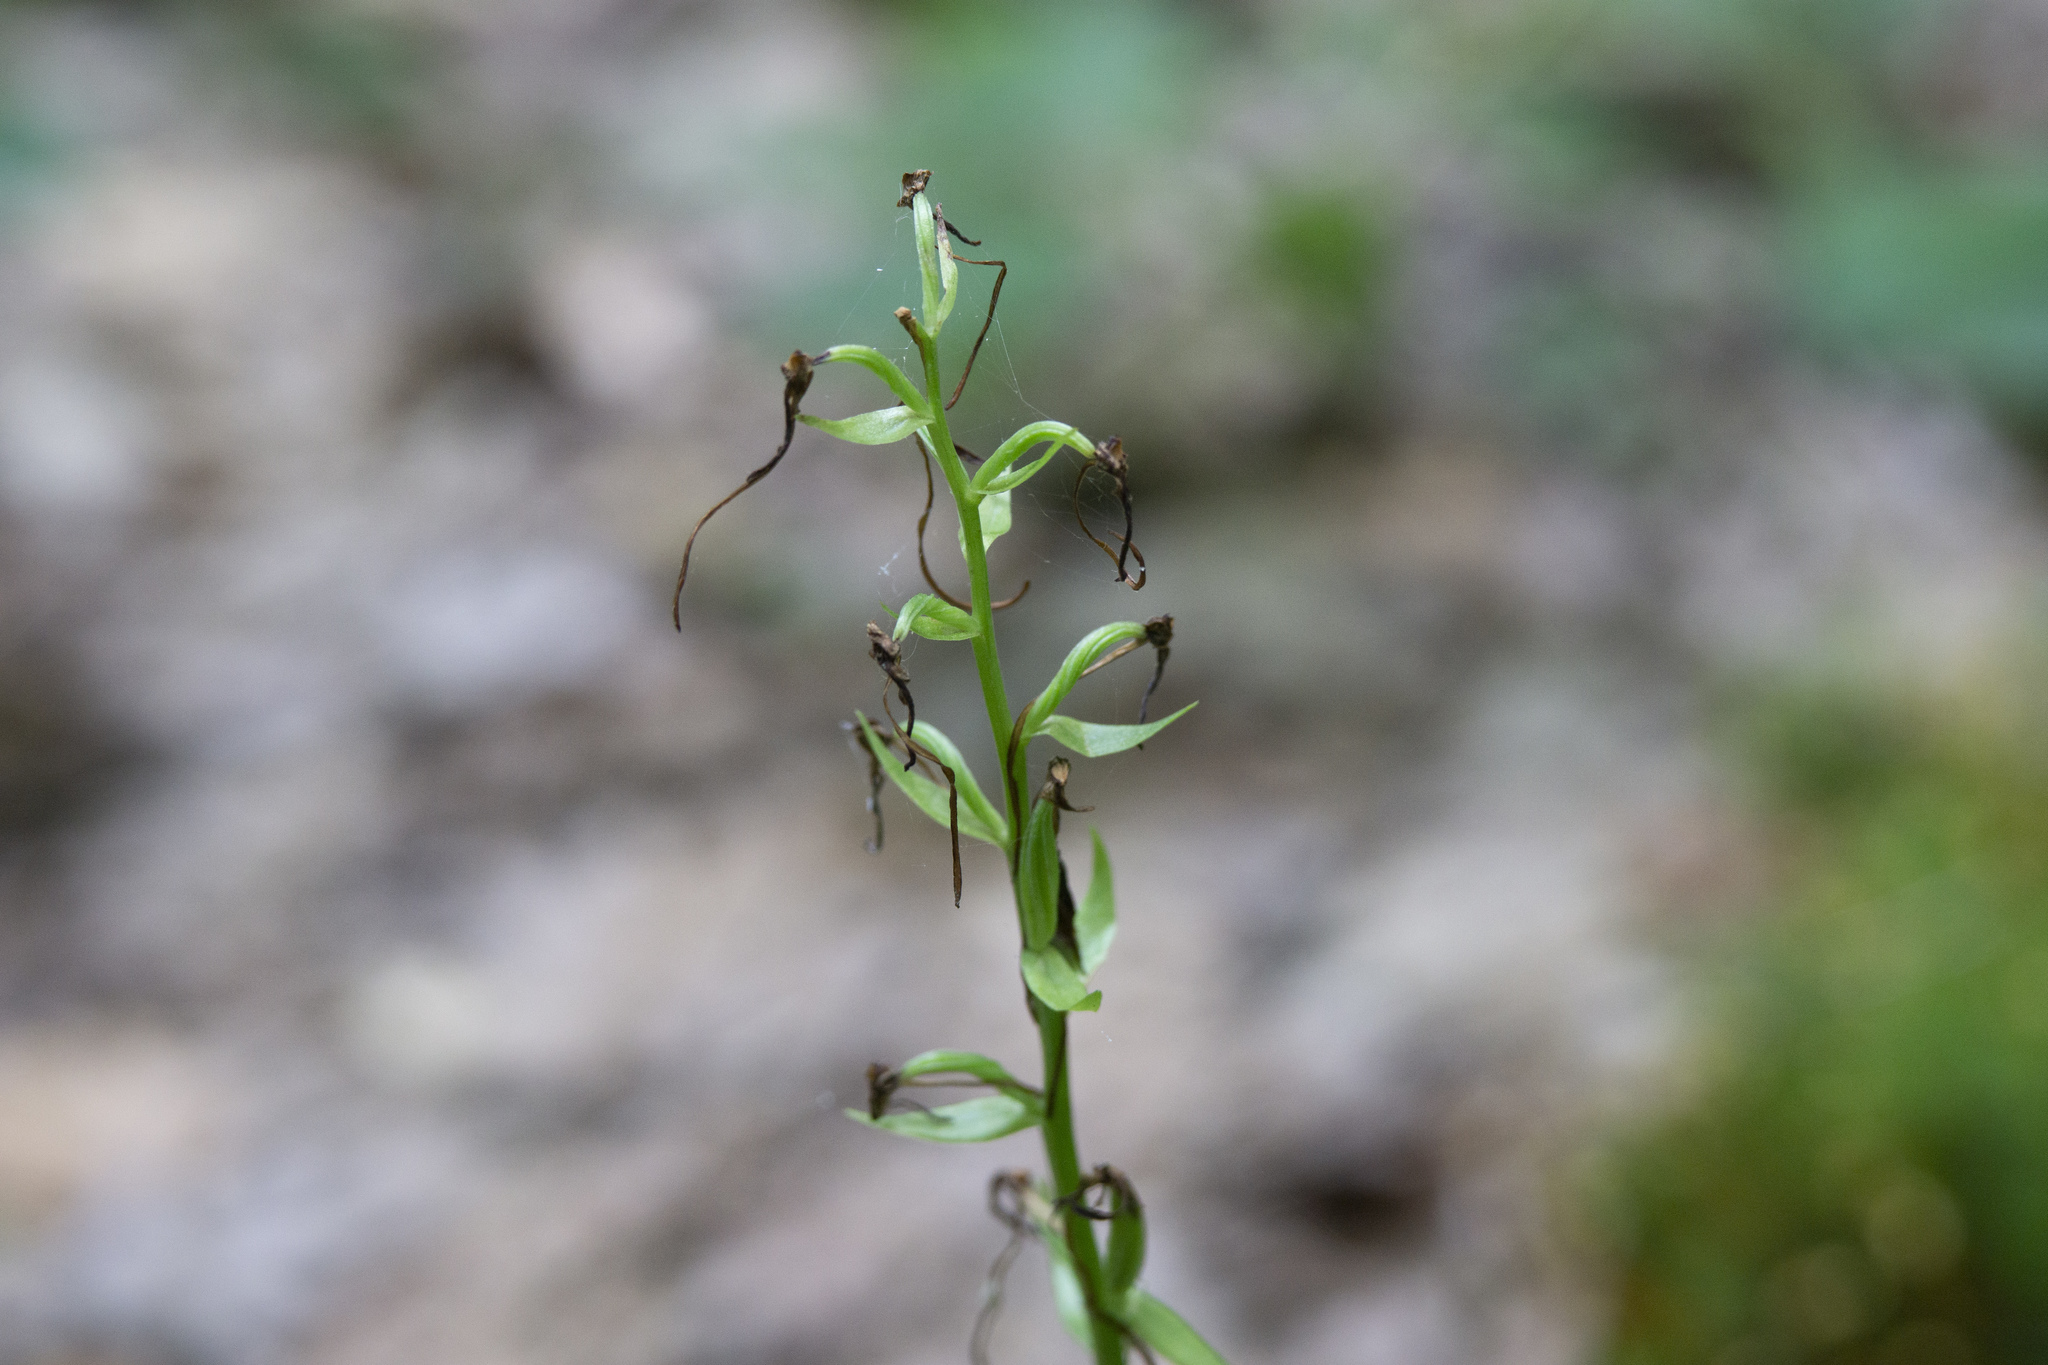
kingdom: Plantae
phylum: Tracheophyta
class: Liliopsida
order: Asparagales
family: Orchidaceae
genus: Platanthera
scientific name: Platanthera bifolia
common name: Lesser butterfly-orchid
